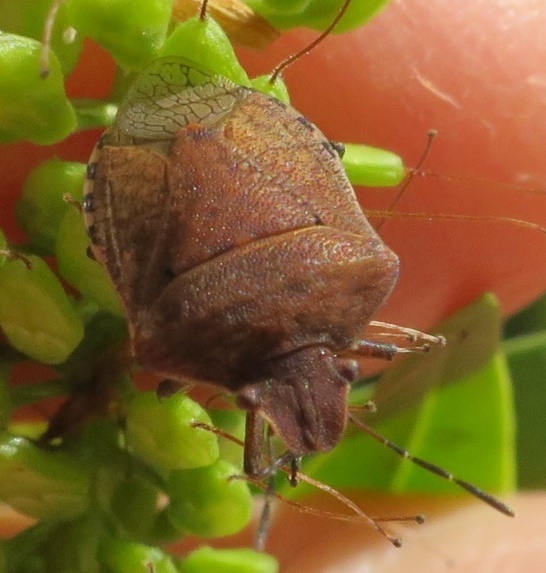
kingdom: Animalia
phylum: Arthropoda
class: Insecta
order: Hemiptera
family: Pentatomidae
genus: Dictyotus
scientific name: Dictyotus caenosus
